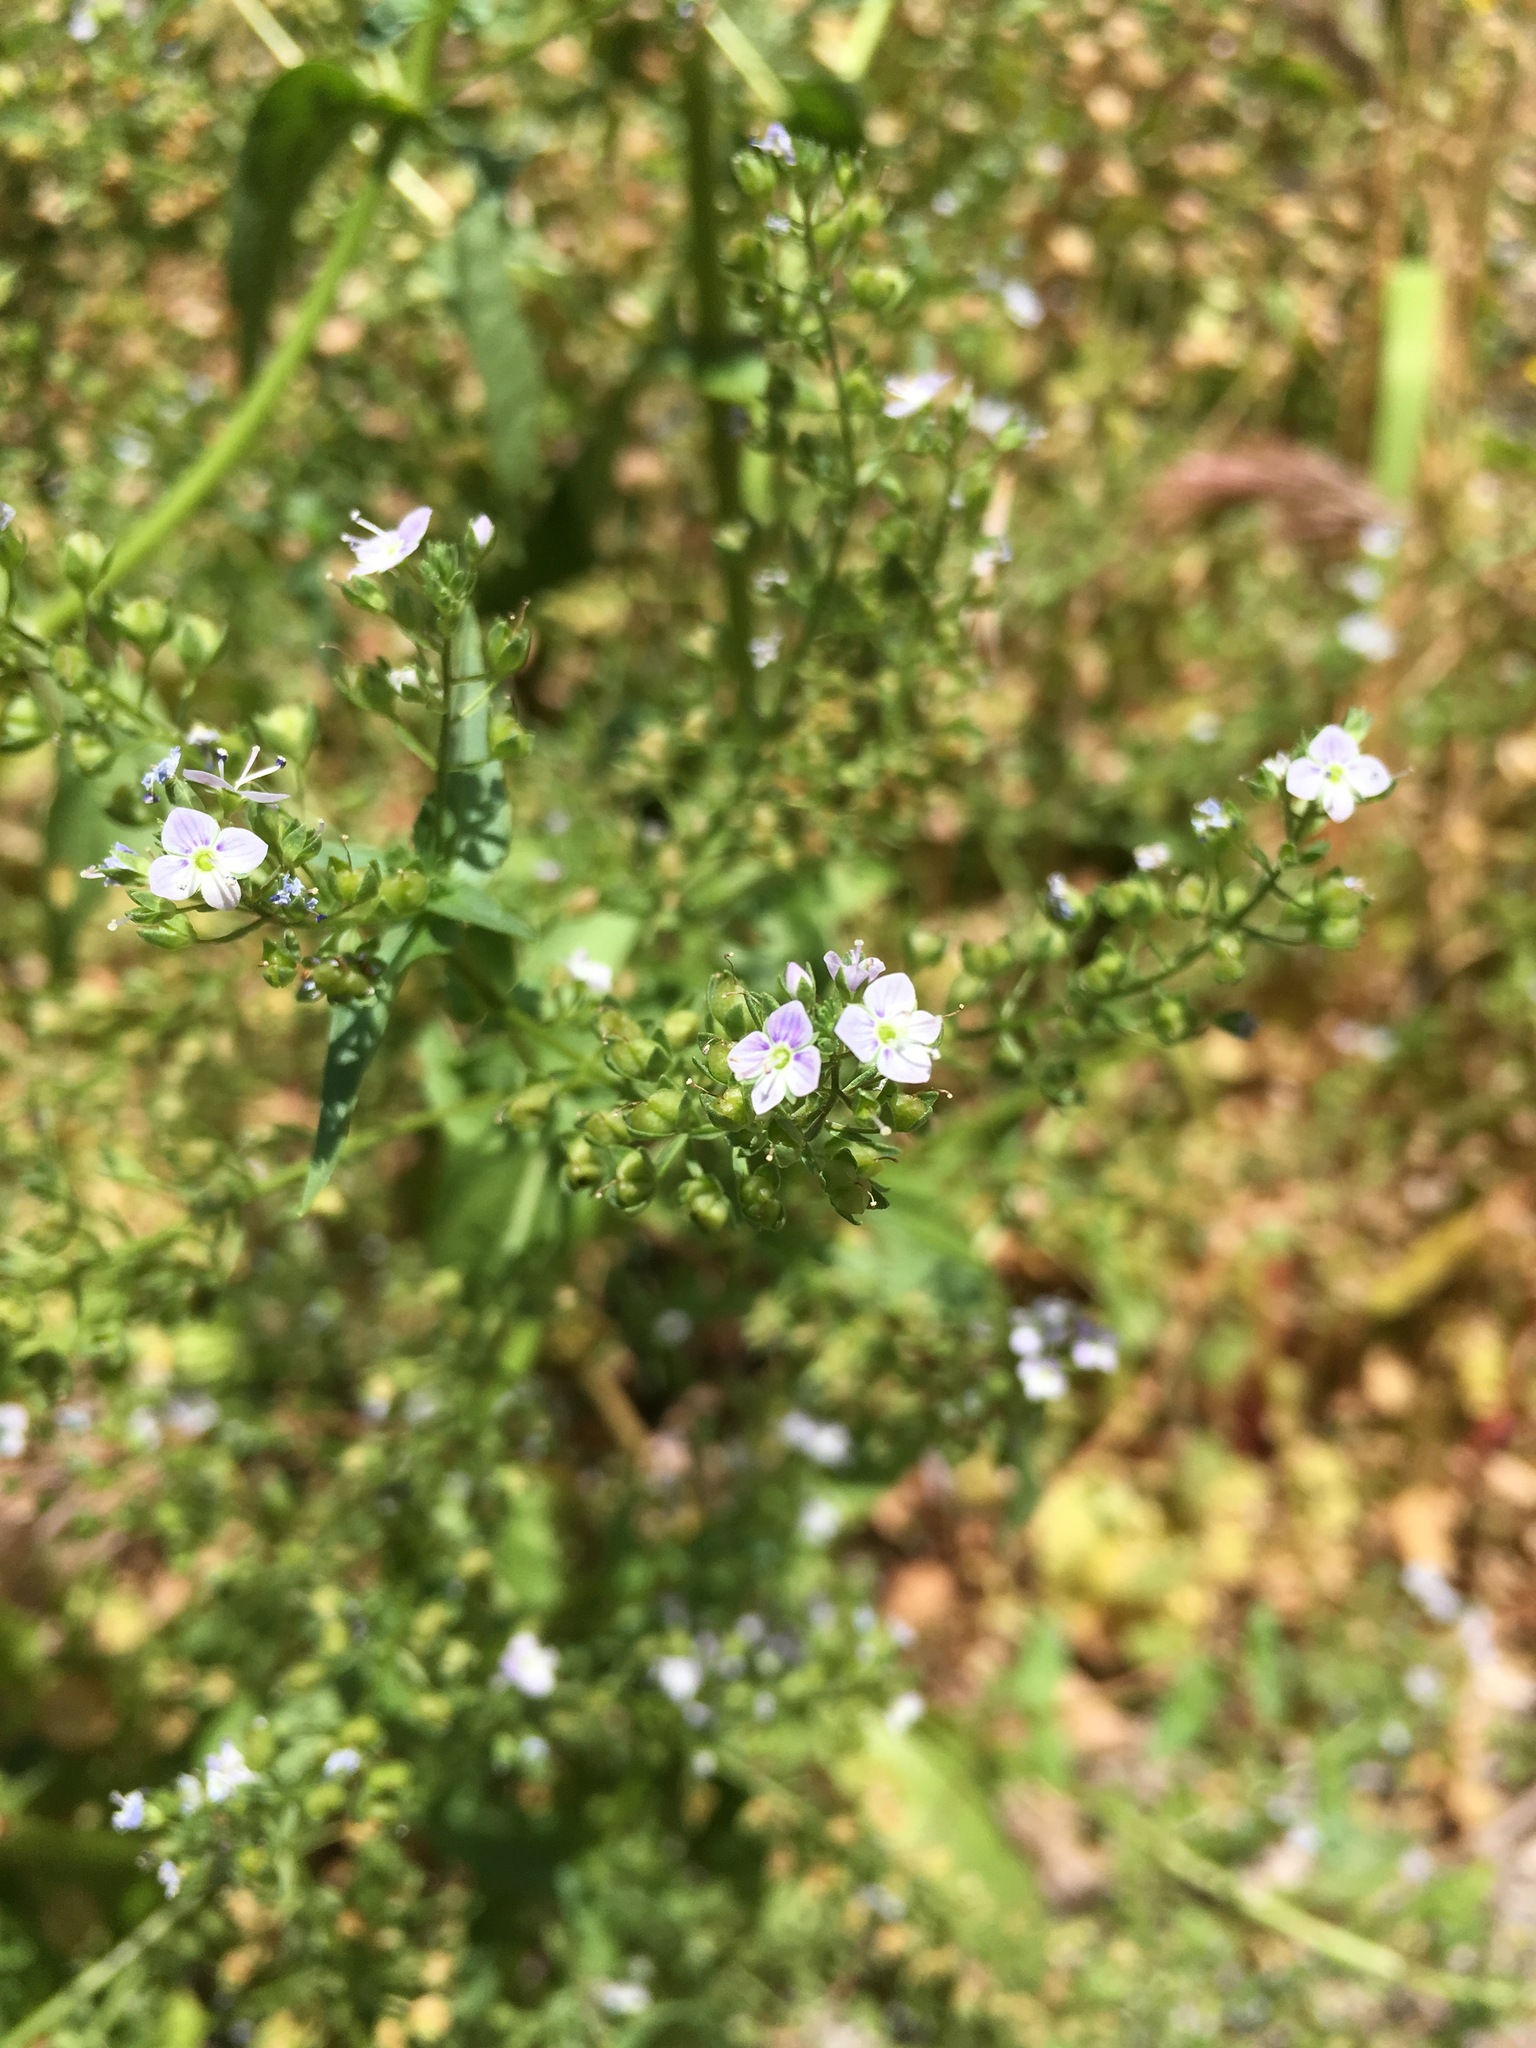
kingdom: Plantae
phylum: Tracheophyta
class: Magnoliopsida
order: Lamiales
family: Plantaginaceae
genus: Veronica
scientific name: Veronica anagallis-aquatica
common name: Water speedwell
